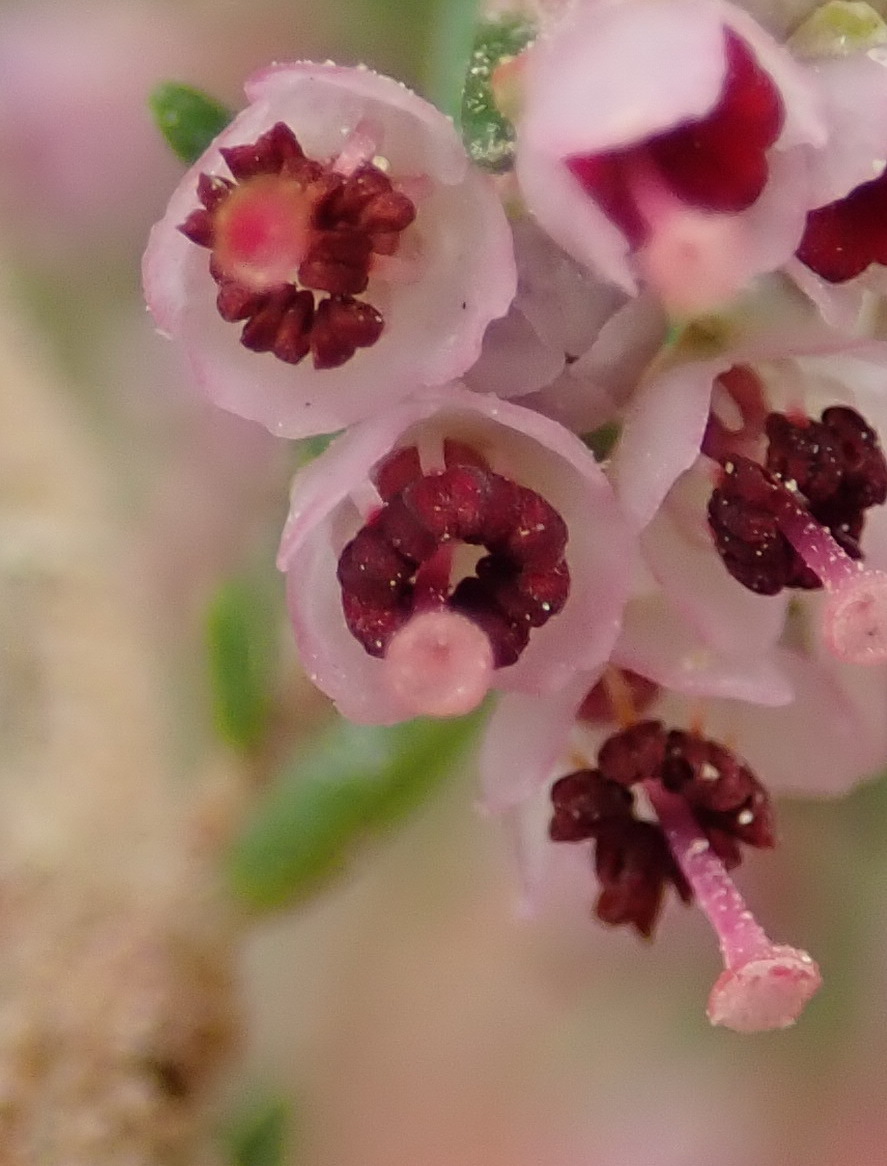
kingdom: Plantae
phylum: Tracheophyta
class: Magnoliopsida
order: Ericales
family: Ericaceae
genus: Erica
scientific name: Erica sparsa
